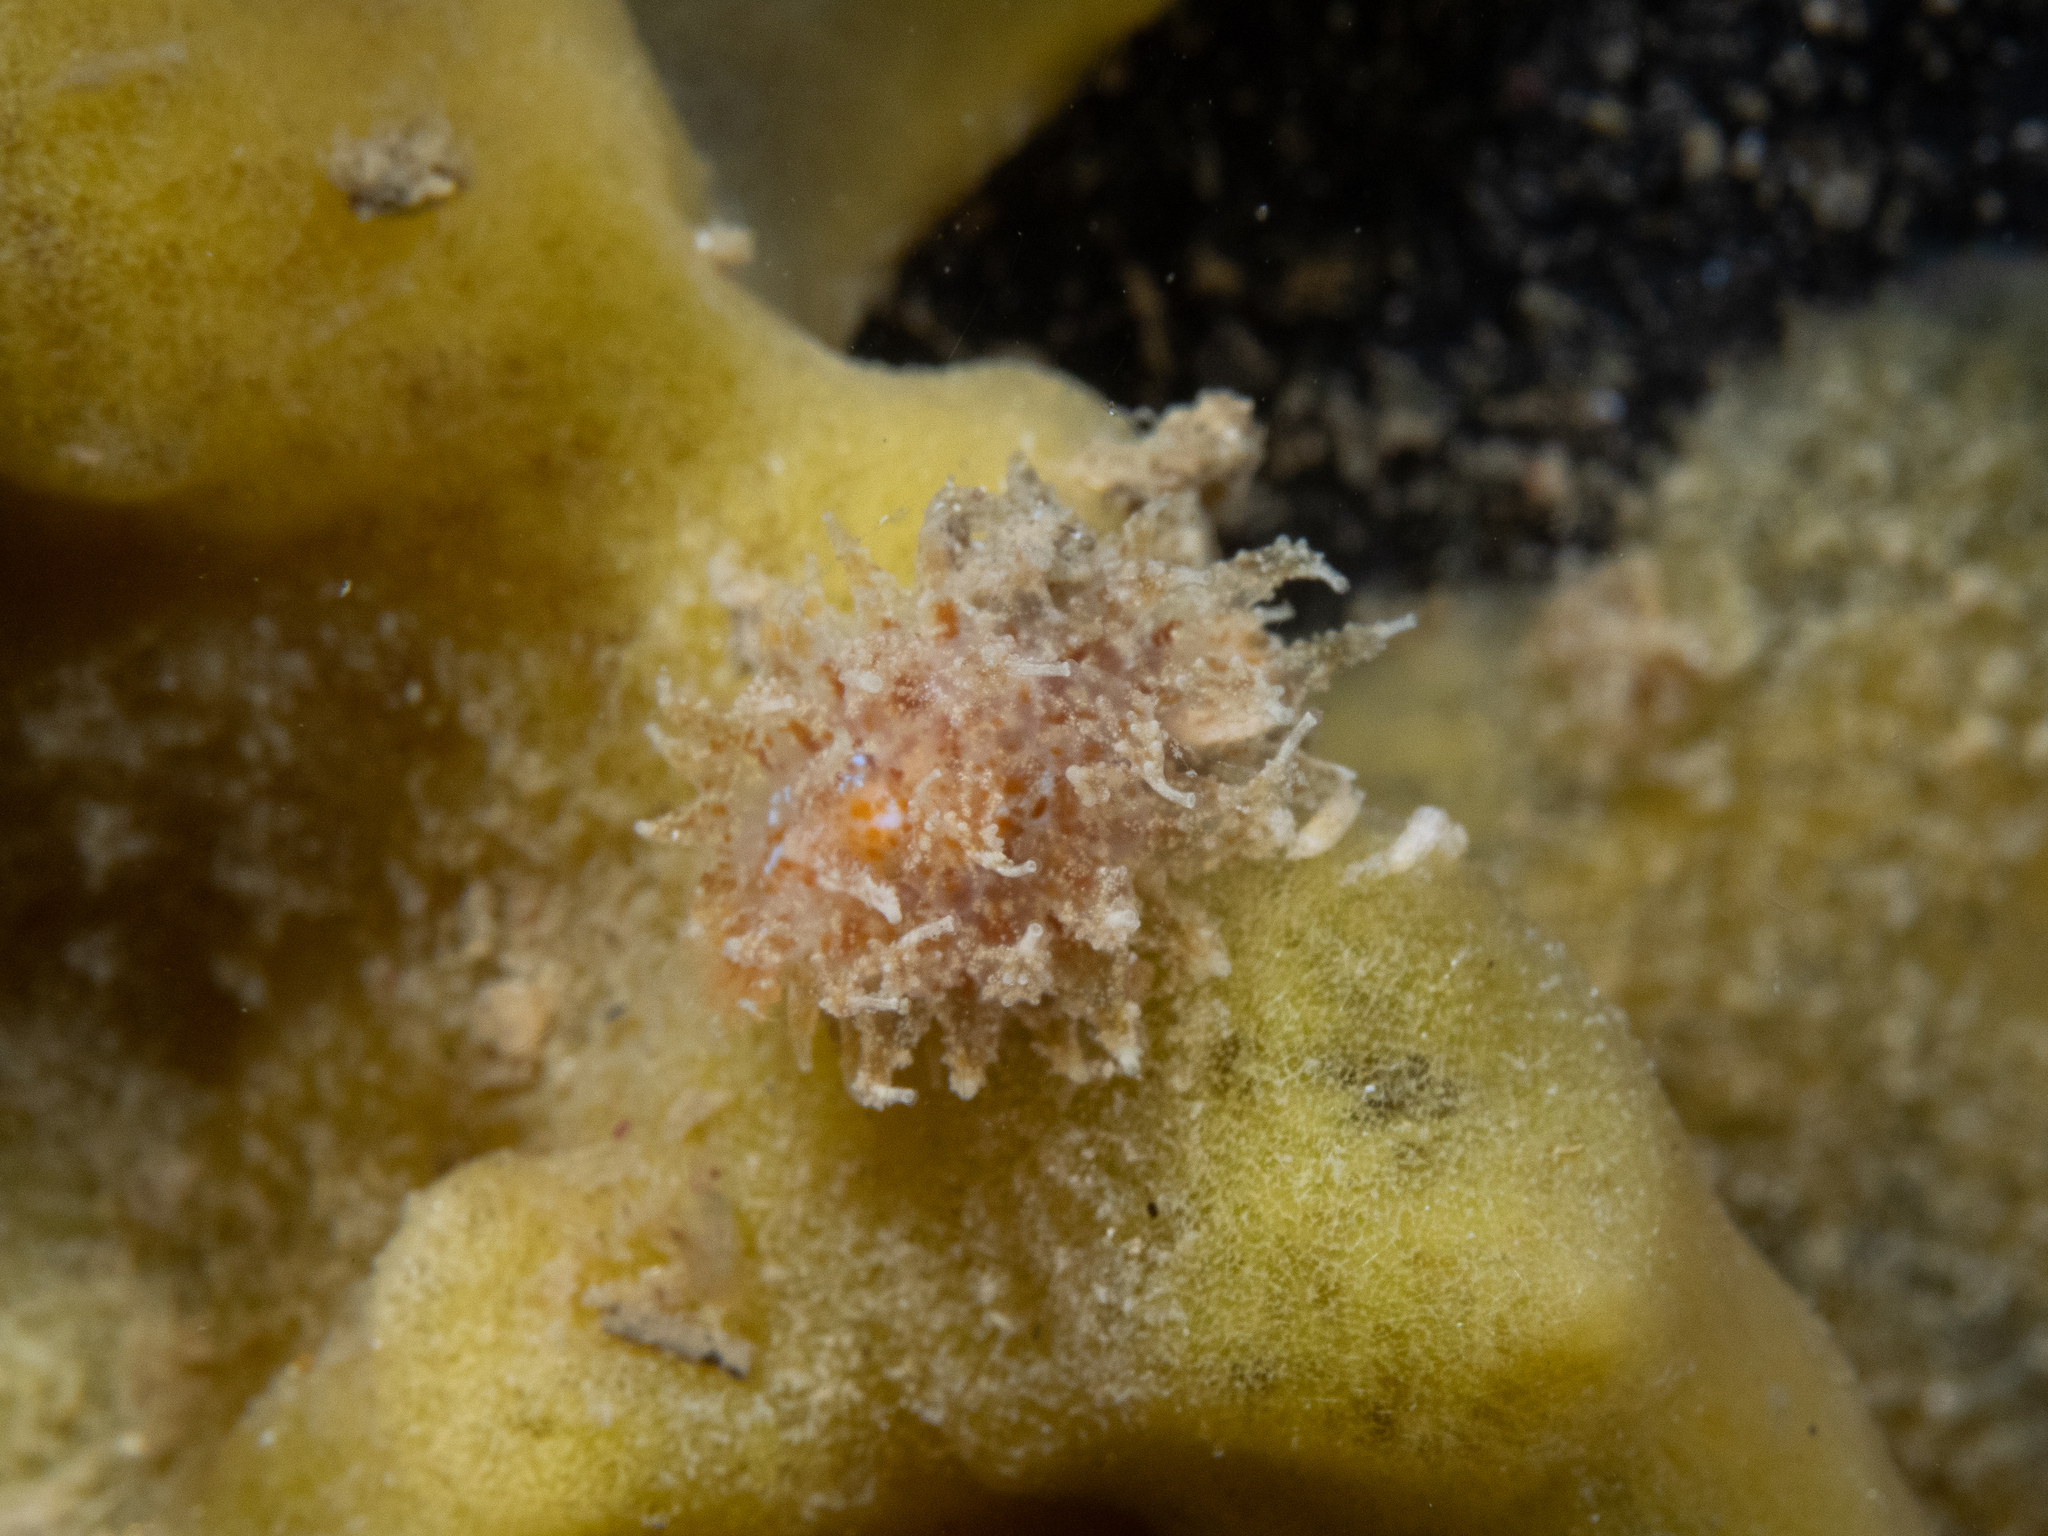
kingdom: Animalia
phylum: Mollusca
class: Gastropoda
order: Nudibranchia
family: Janolidae
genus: Janolus
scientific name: Janolus hyalinus
